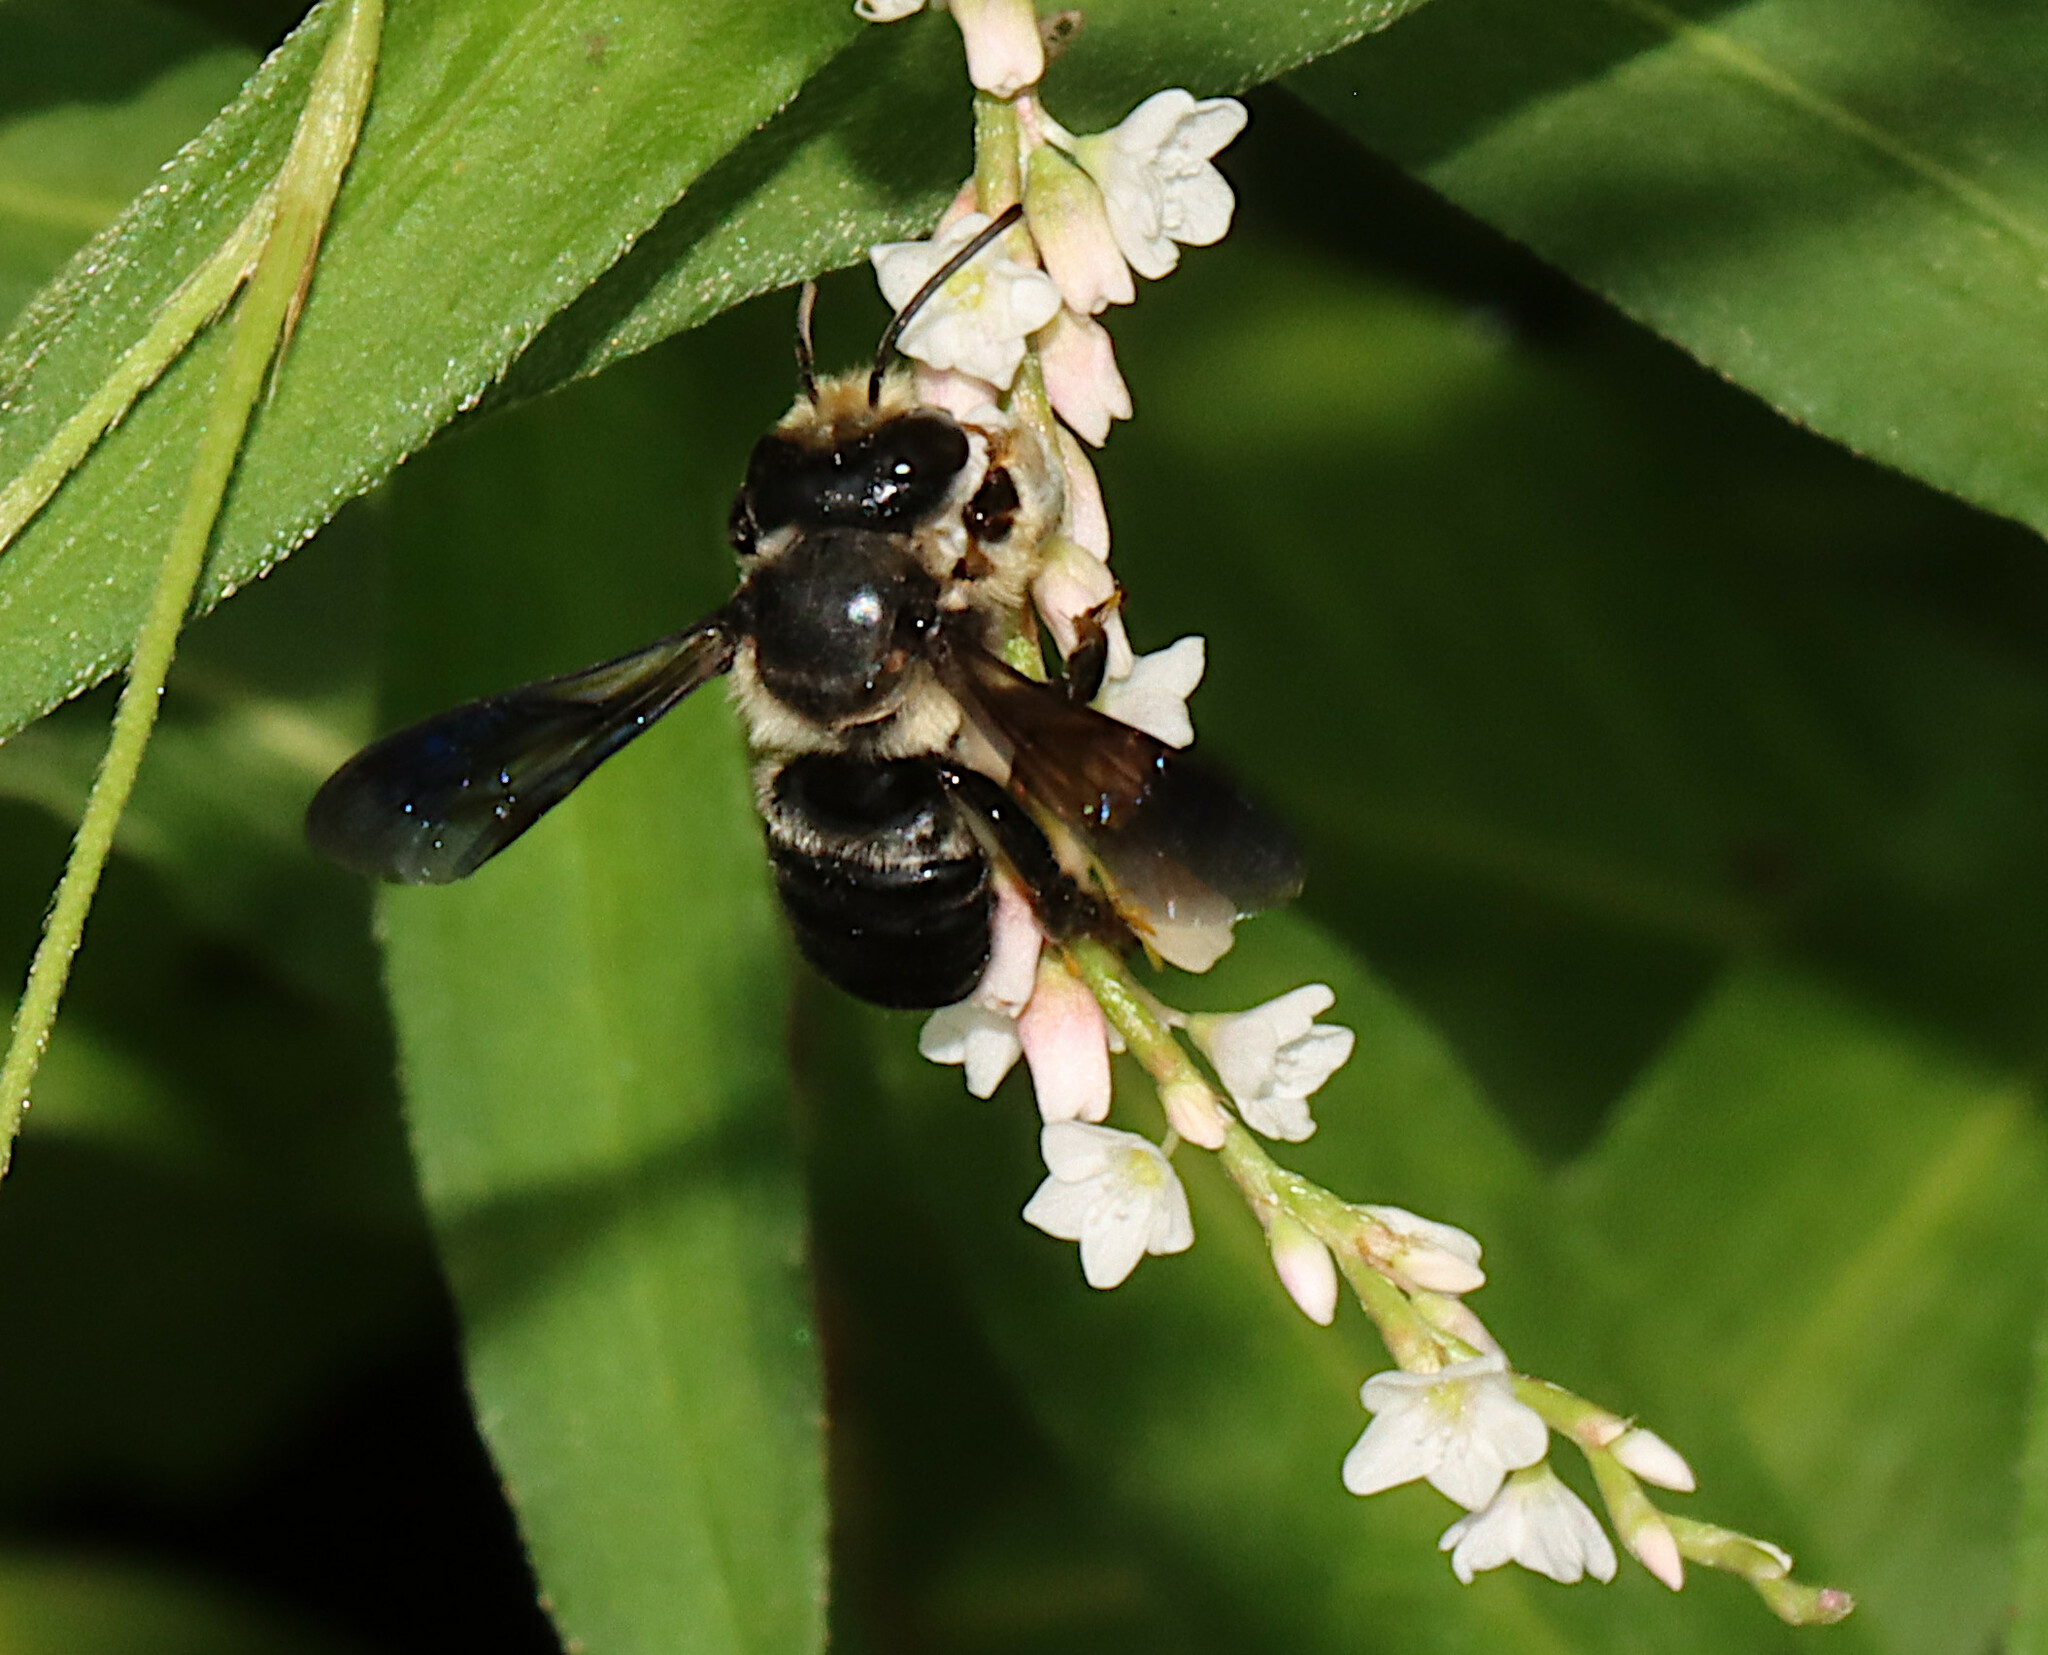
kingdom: Animalia
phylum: Arthropoda
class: Insecta
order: Hymenoptera
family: Megachilidae
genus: Megachile
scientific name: Megachile xylocopoides
